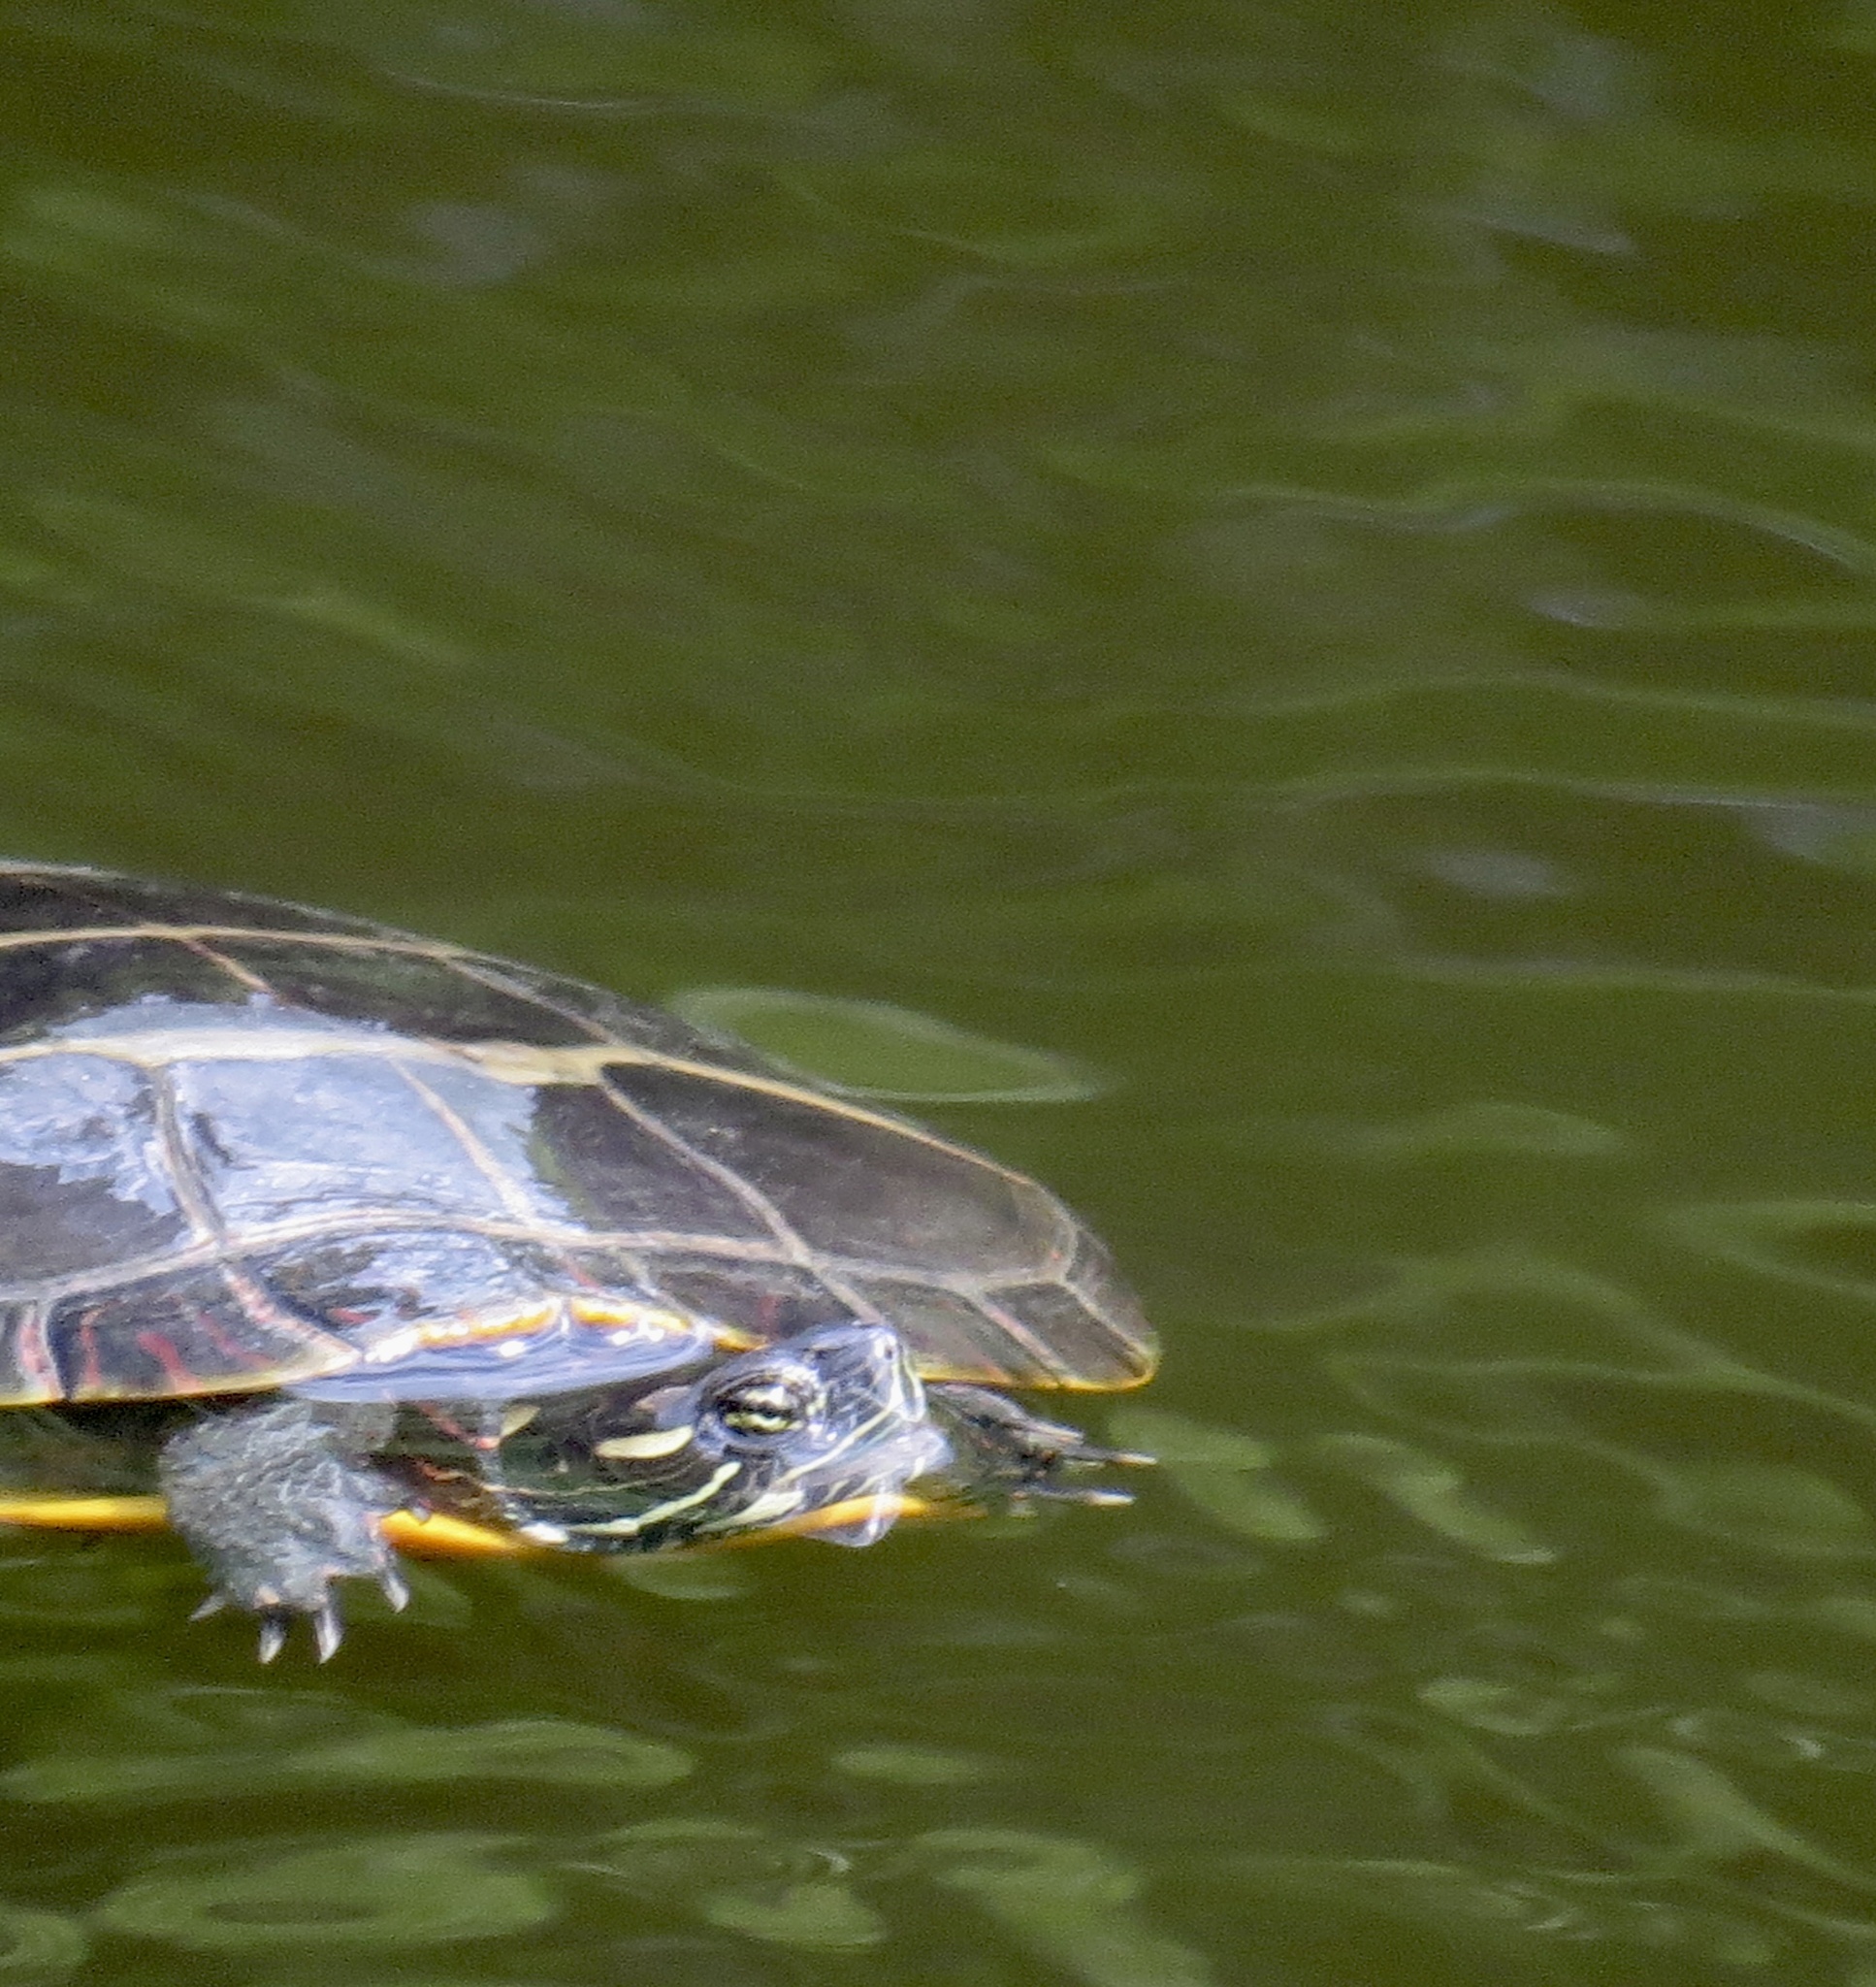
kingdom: Animalia
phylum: Chordata
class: Testudines
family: Emydidae
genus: Chrysemys
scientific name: Chrysemys picta
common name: Painted turtle
